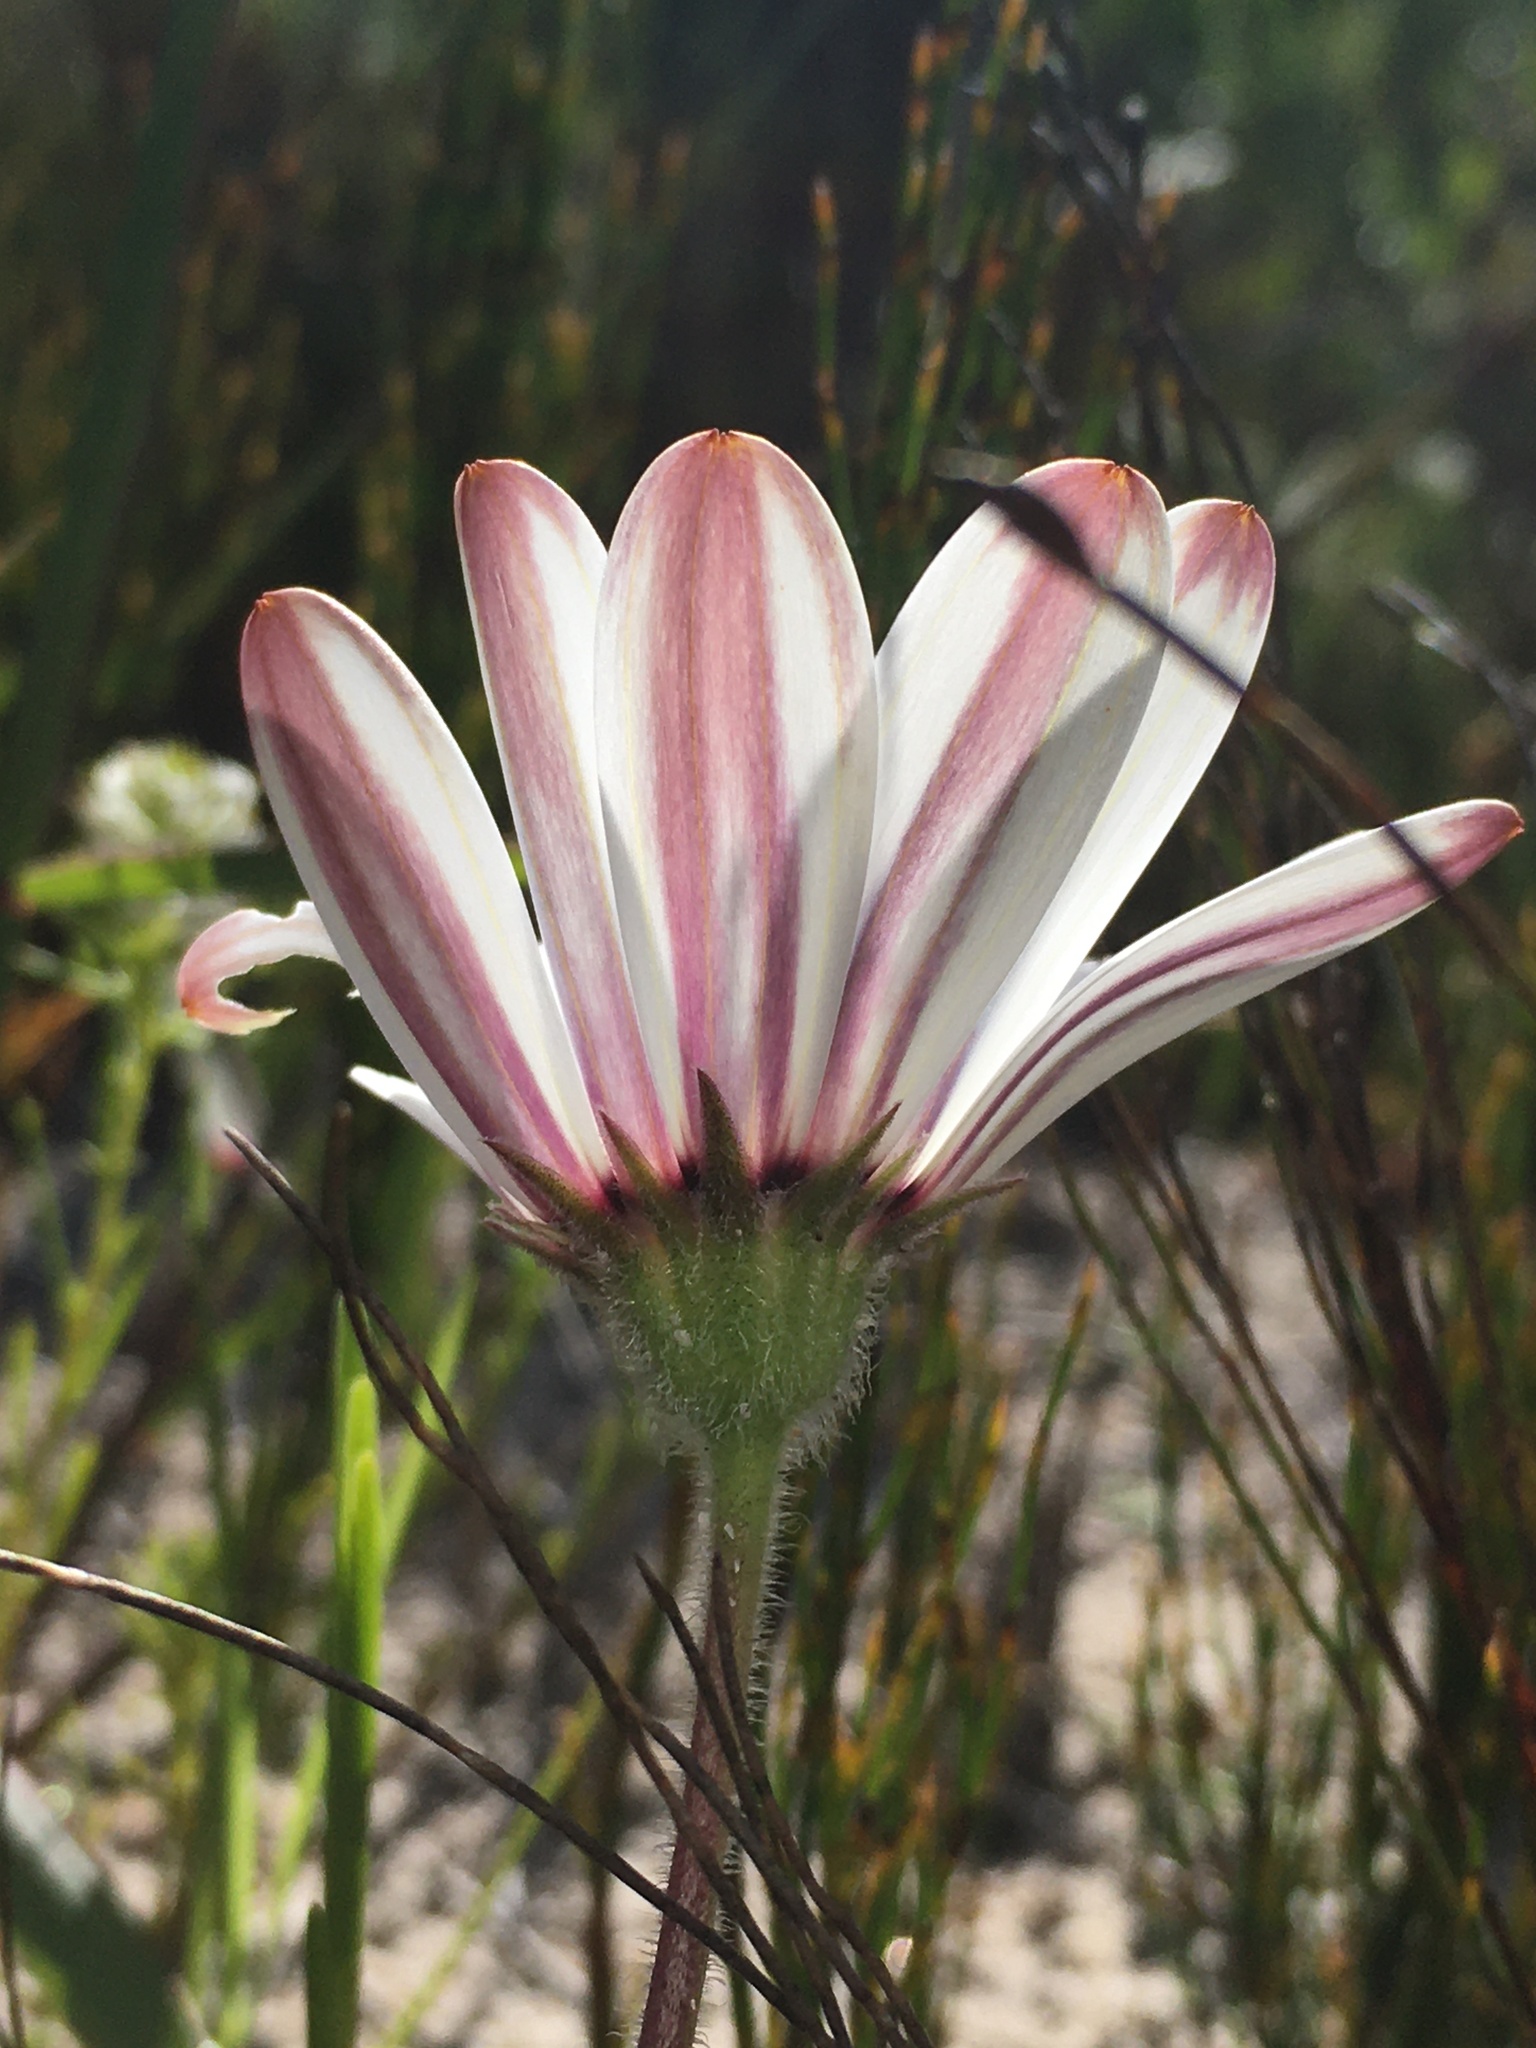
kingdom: Plantae
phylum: Tracheophyta
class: Magnoliopsida
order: Asterales
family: Asteraceae
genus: Dimorphotheca
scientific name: Dimorphotheca fruticosa
